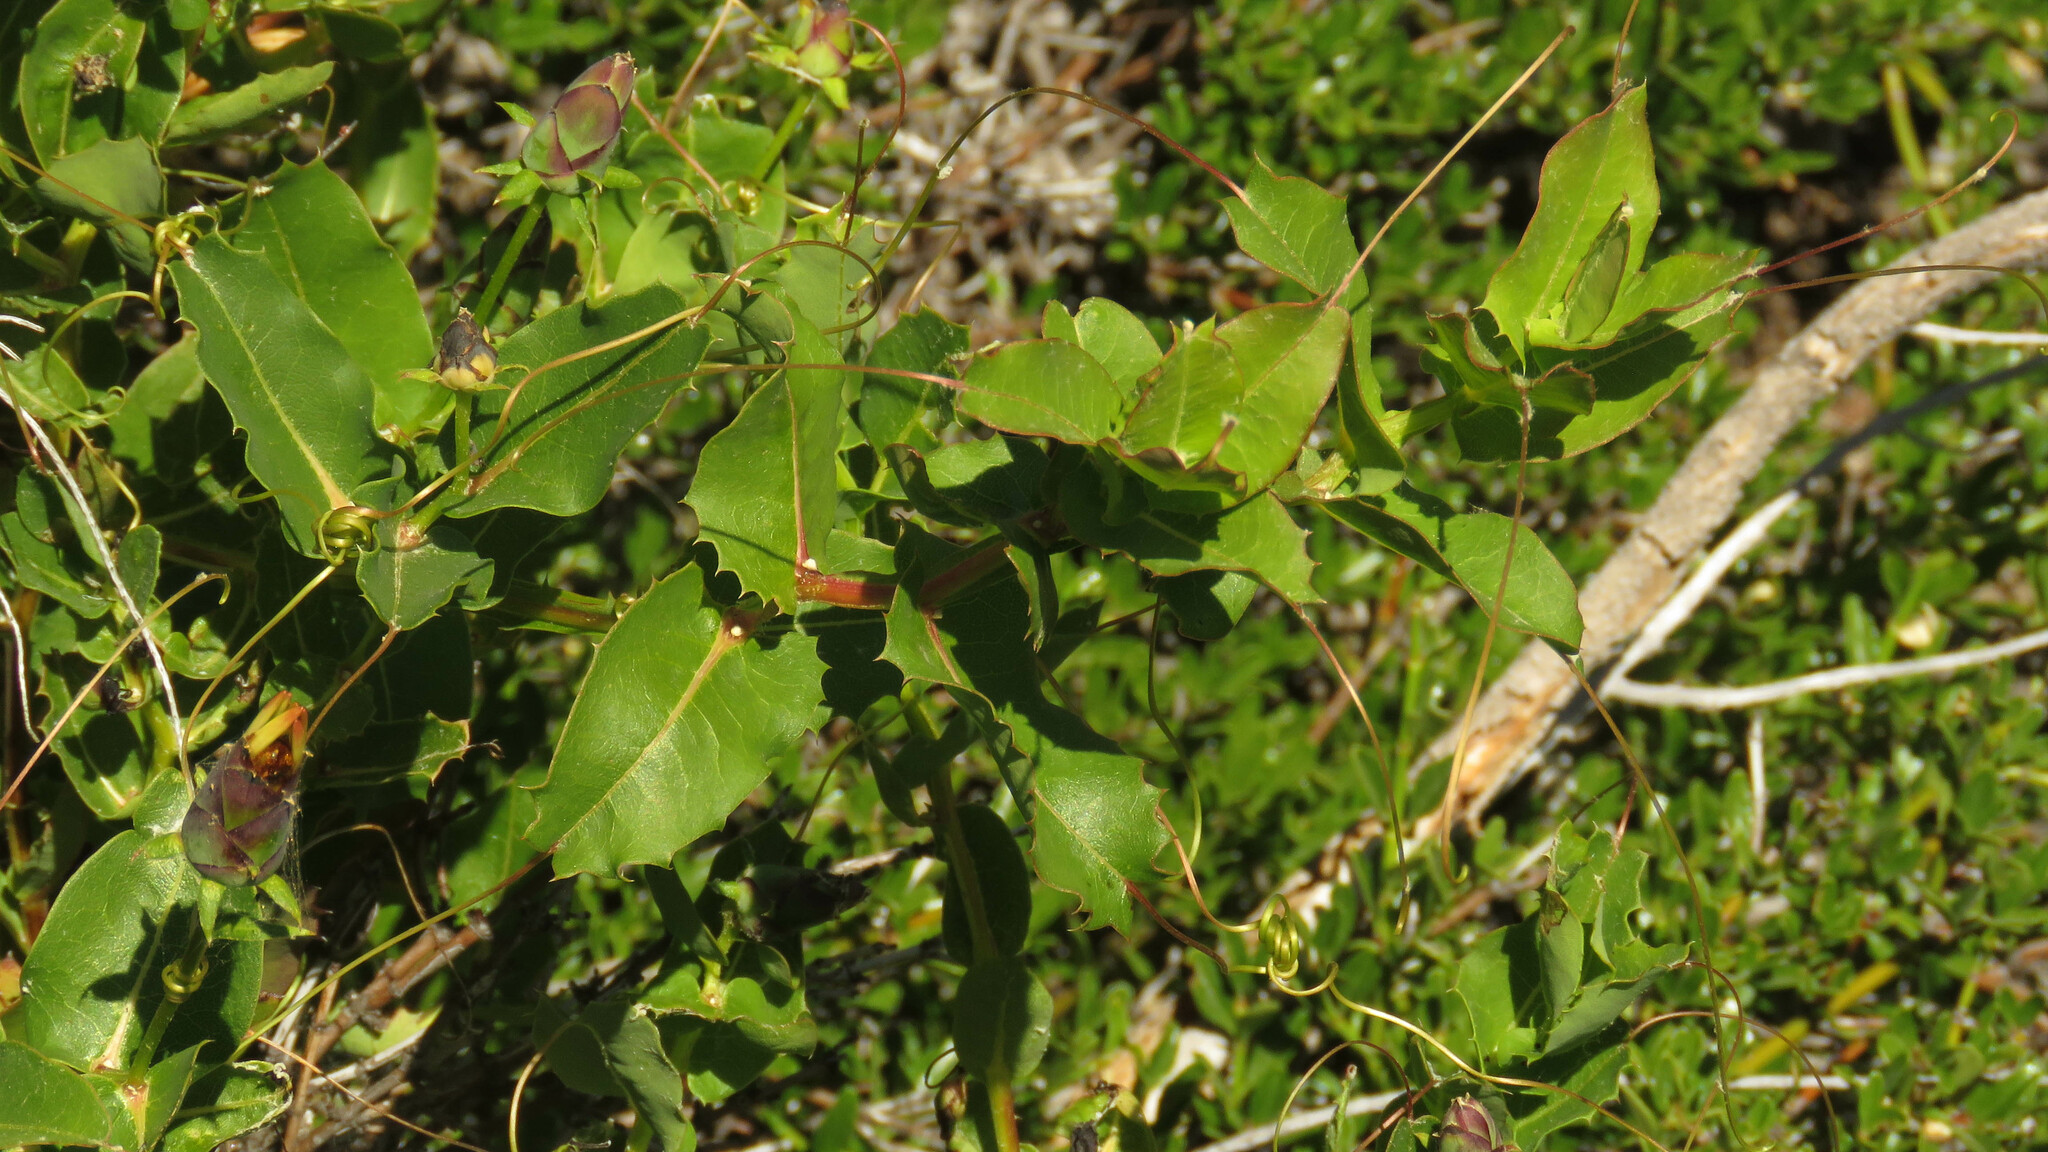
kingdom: Plantae
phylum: Tracheophyta
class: Magnoliopsida
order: Asterales
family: Asteraceae
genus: Mutisia
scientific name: Mutisia spinosa
